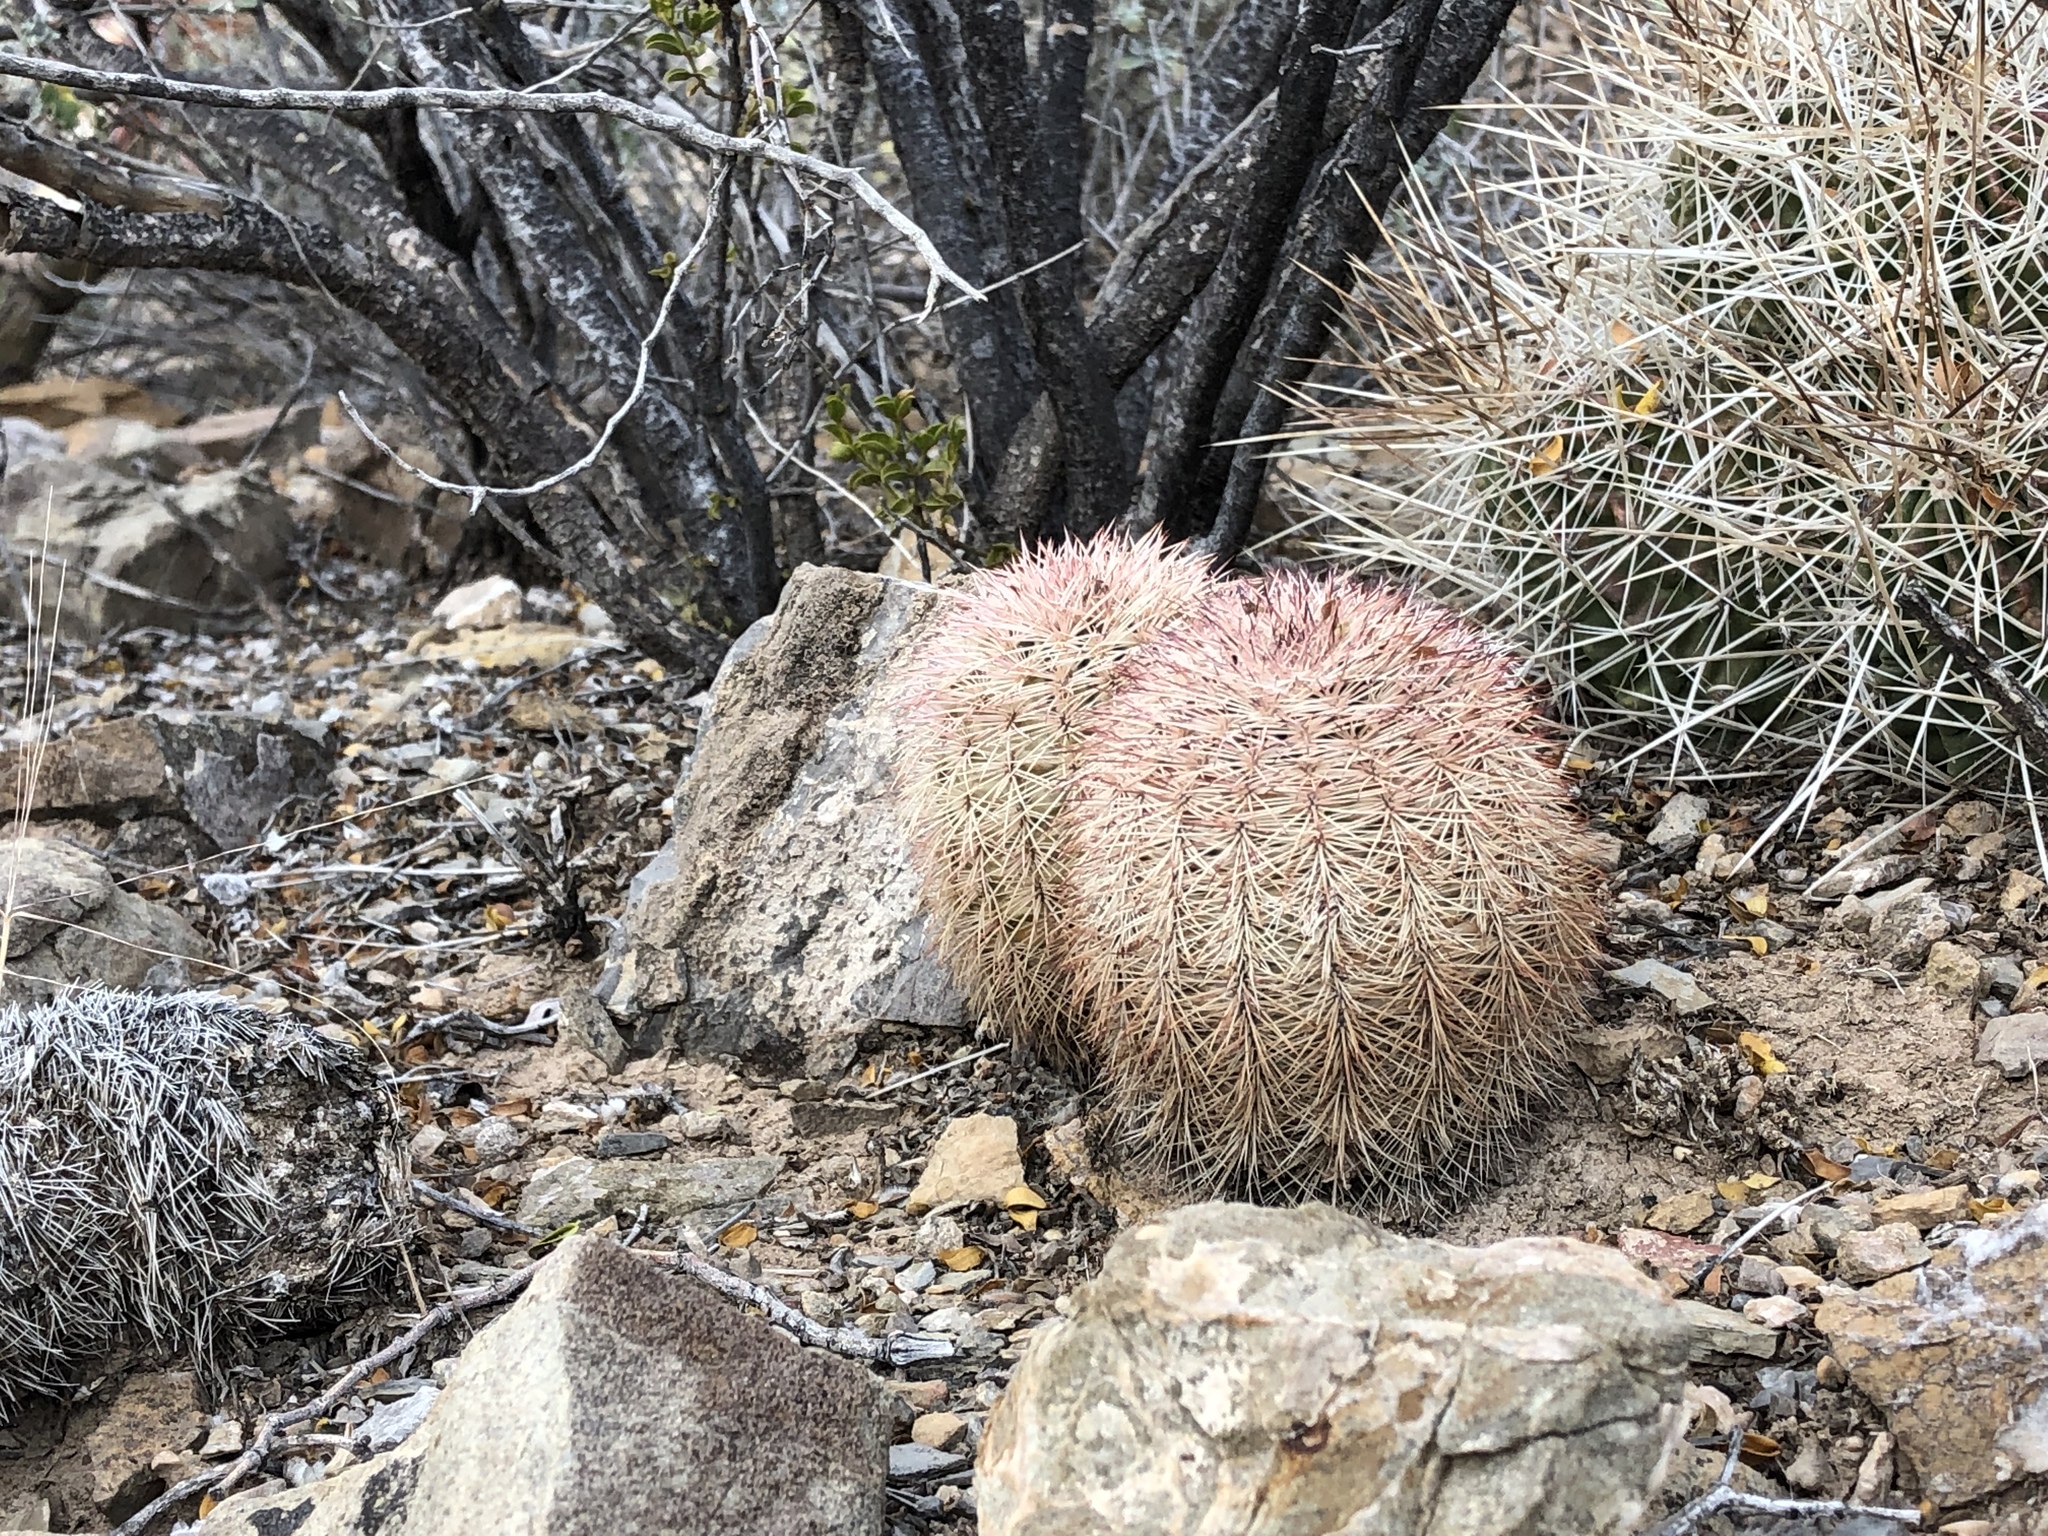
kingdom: Plantae
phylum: Tracheophyta
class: Magnoliopsida
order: Caryophyllales
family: Cactaceae
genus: Echinocereus
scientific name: Echinocereus dasyacanthus
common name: Spiny hedgehog cactus
